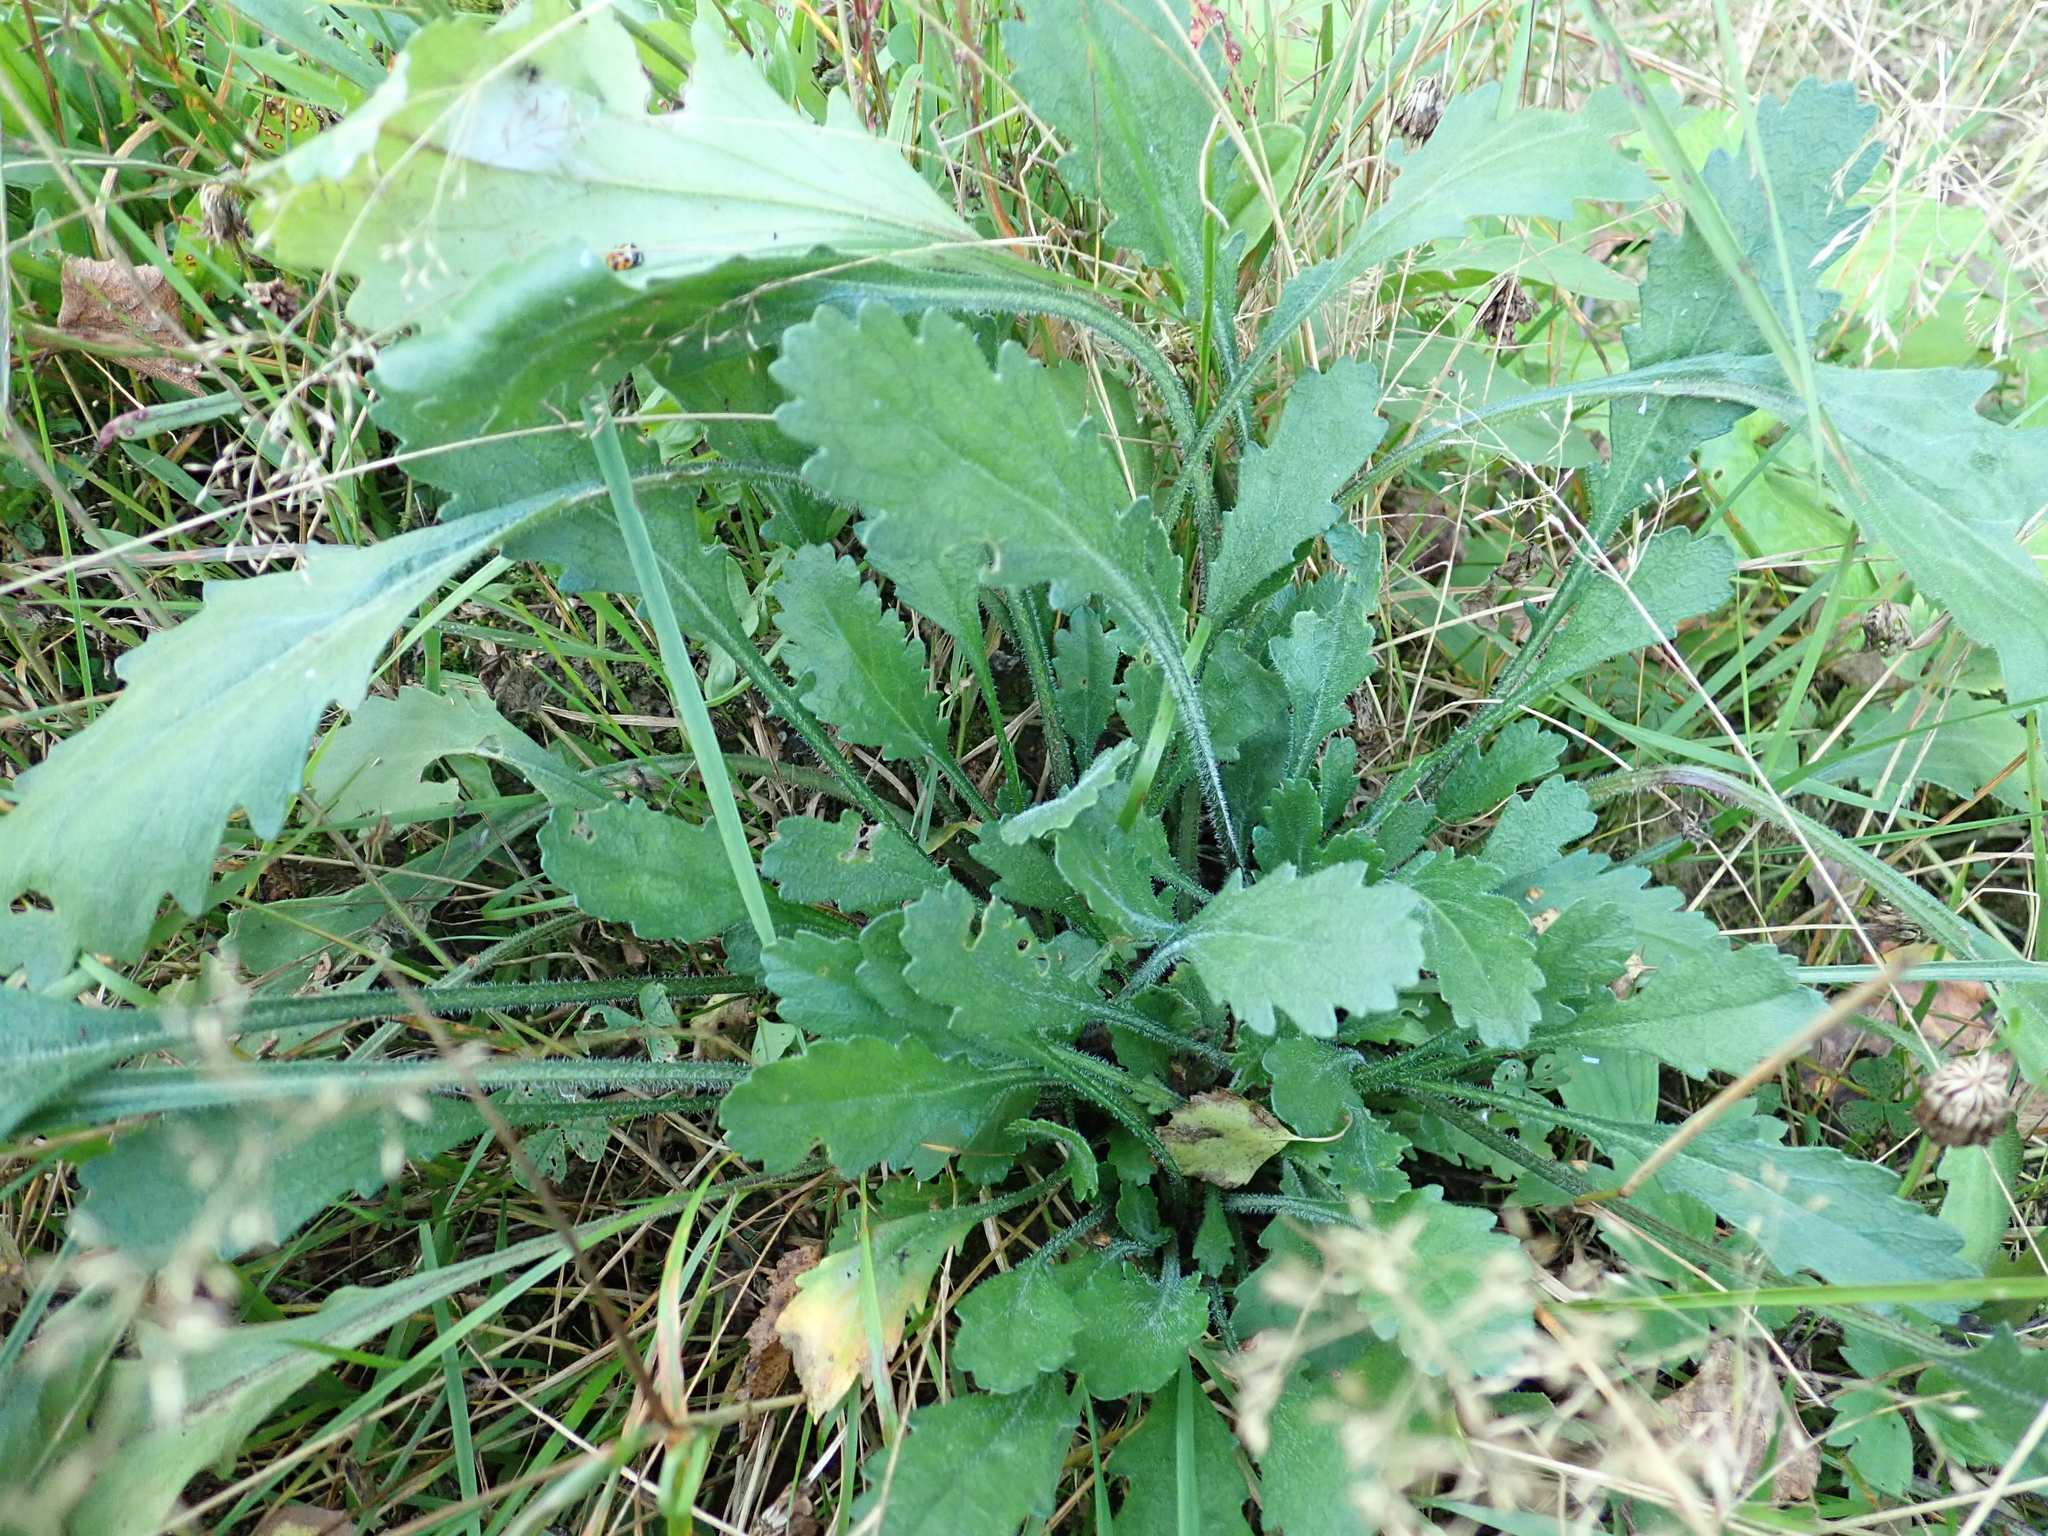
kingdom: Plantae
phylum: Tracheophyta
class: Magnoliopsida
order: Asterales
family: Asteraceae
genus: Leucanthemum
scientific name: Leucanthemum vulgare
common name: Oxeye daisy
